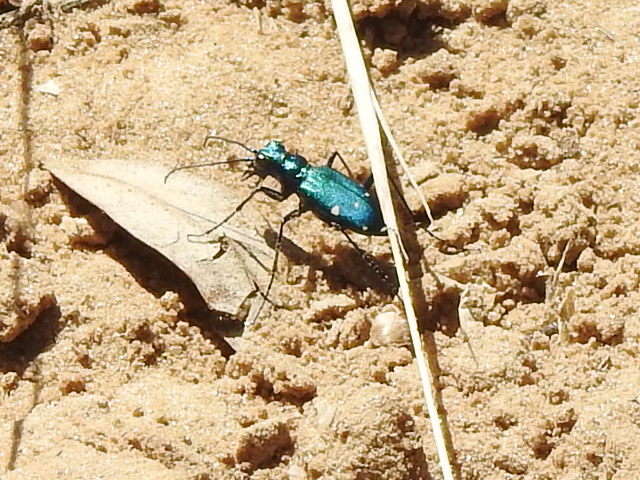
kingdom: Animalia
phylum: Arthropoda
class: Insecta
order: Coleoptera
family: Carabidae
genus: Cicindela
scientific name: Cicindela sexguttata
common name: Six-spotted tiger beetle
